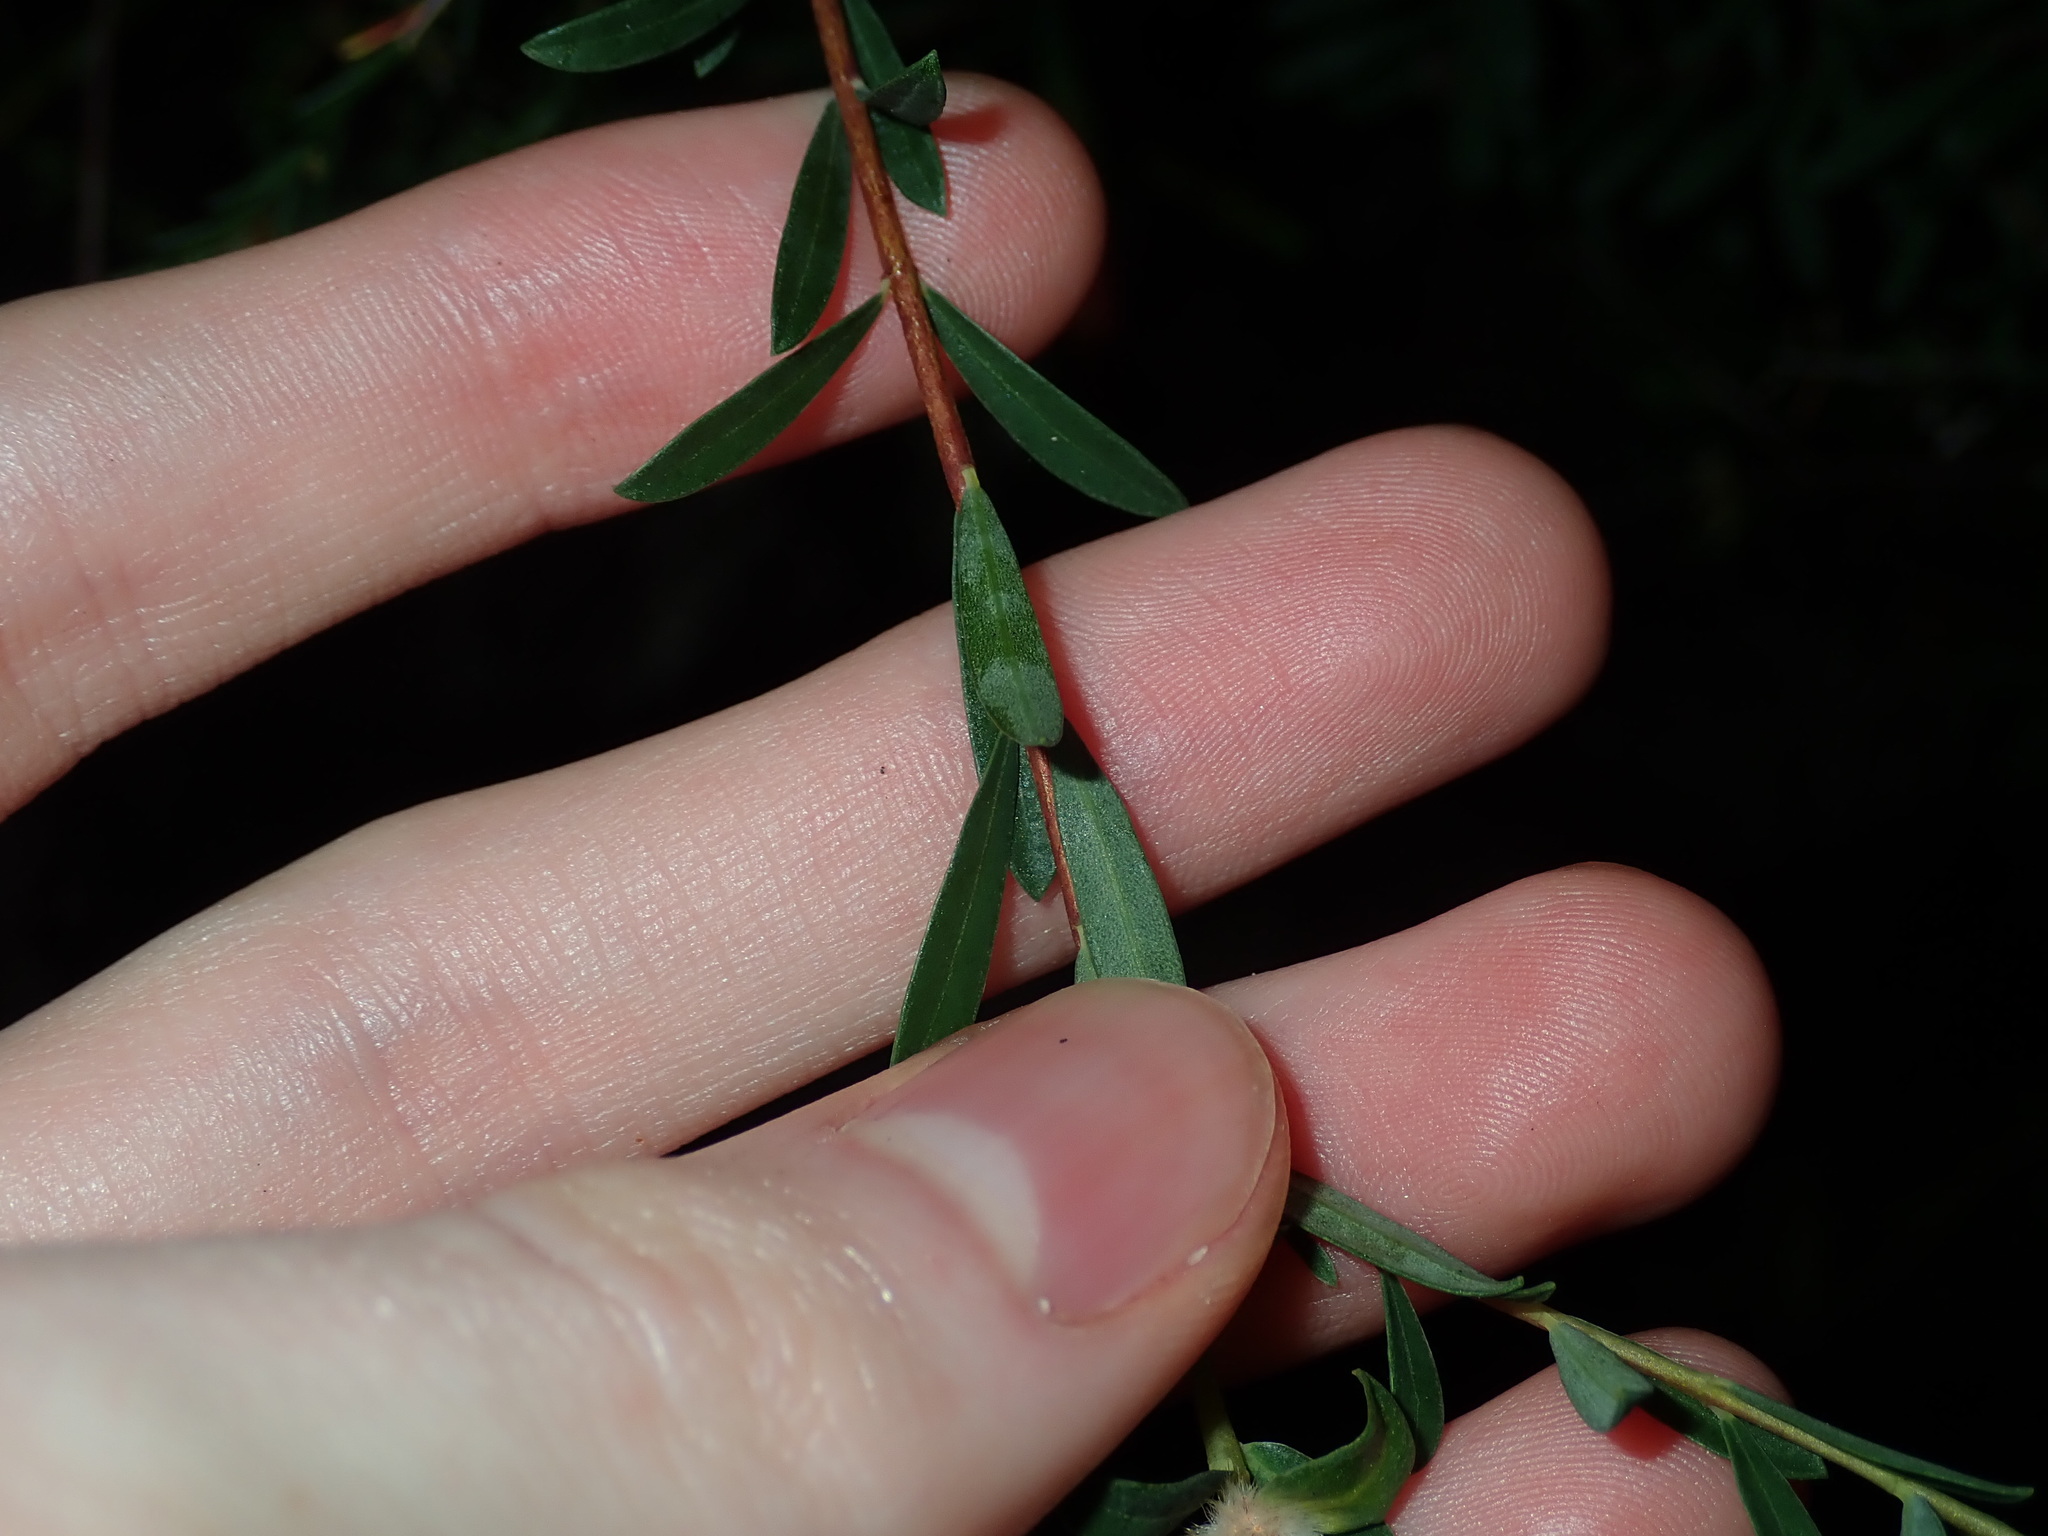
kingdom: Plantae
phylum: Tracheophyta
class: Magnoliopsida
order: Malvales
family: Thymelaeaceae
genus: Pimelea
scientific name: Pimelea linifolia
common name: Queen-of-the-bush
